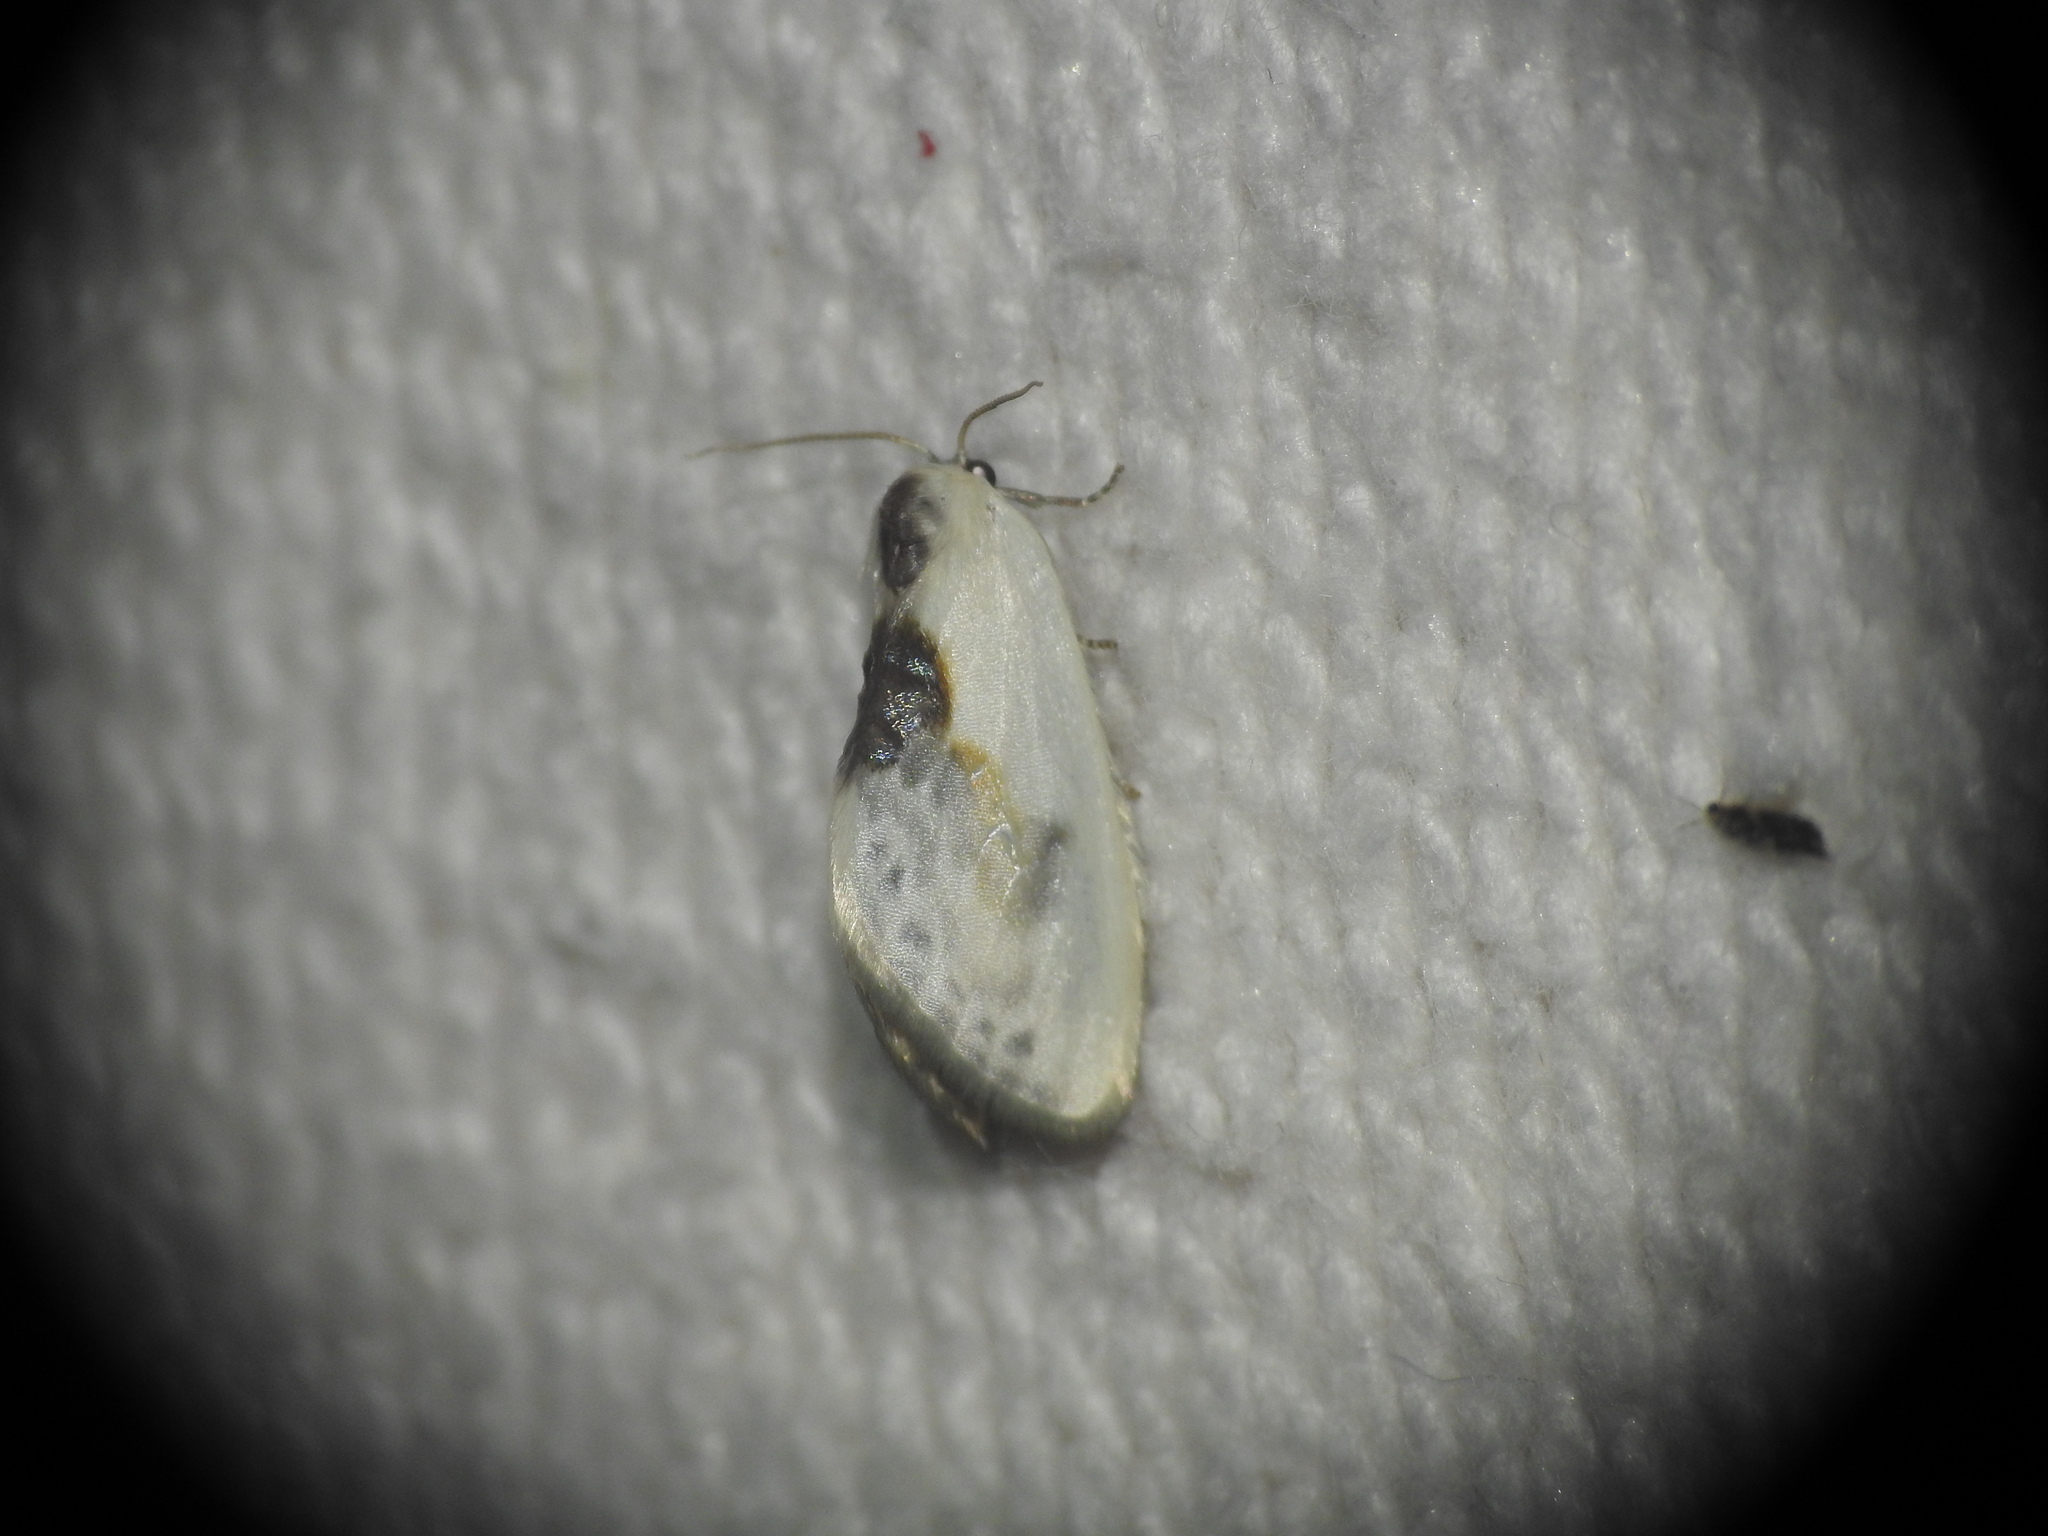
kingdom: Animalia
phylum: Arthropoda
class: Insecta
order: Lepidoptera
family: Drepanidae
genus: Cilix
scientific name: Cilix glaucata
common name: Chinese character
